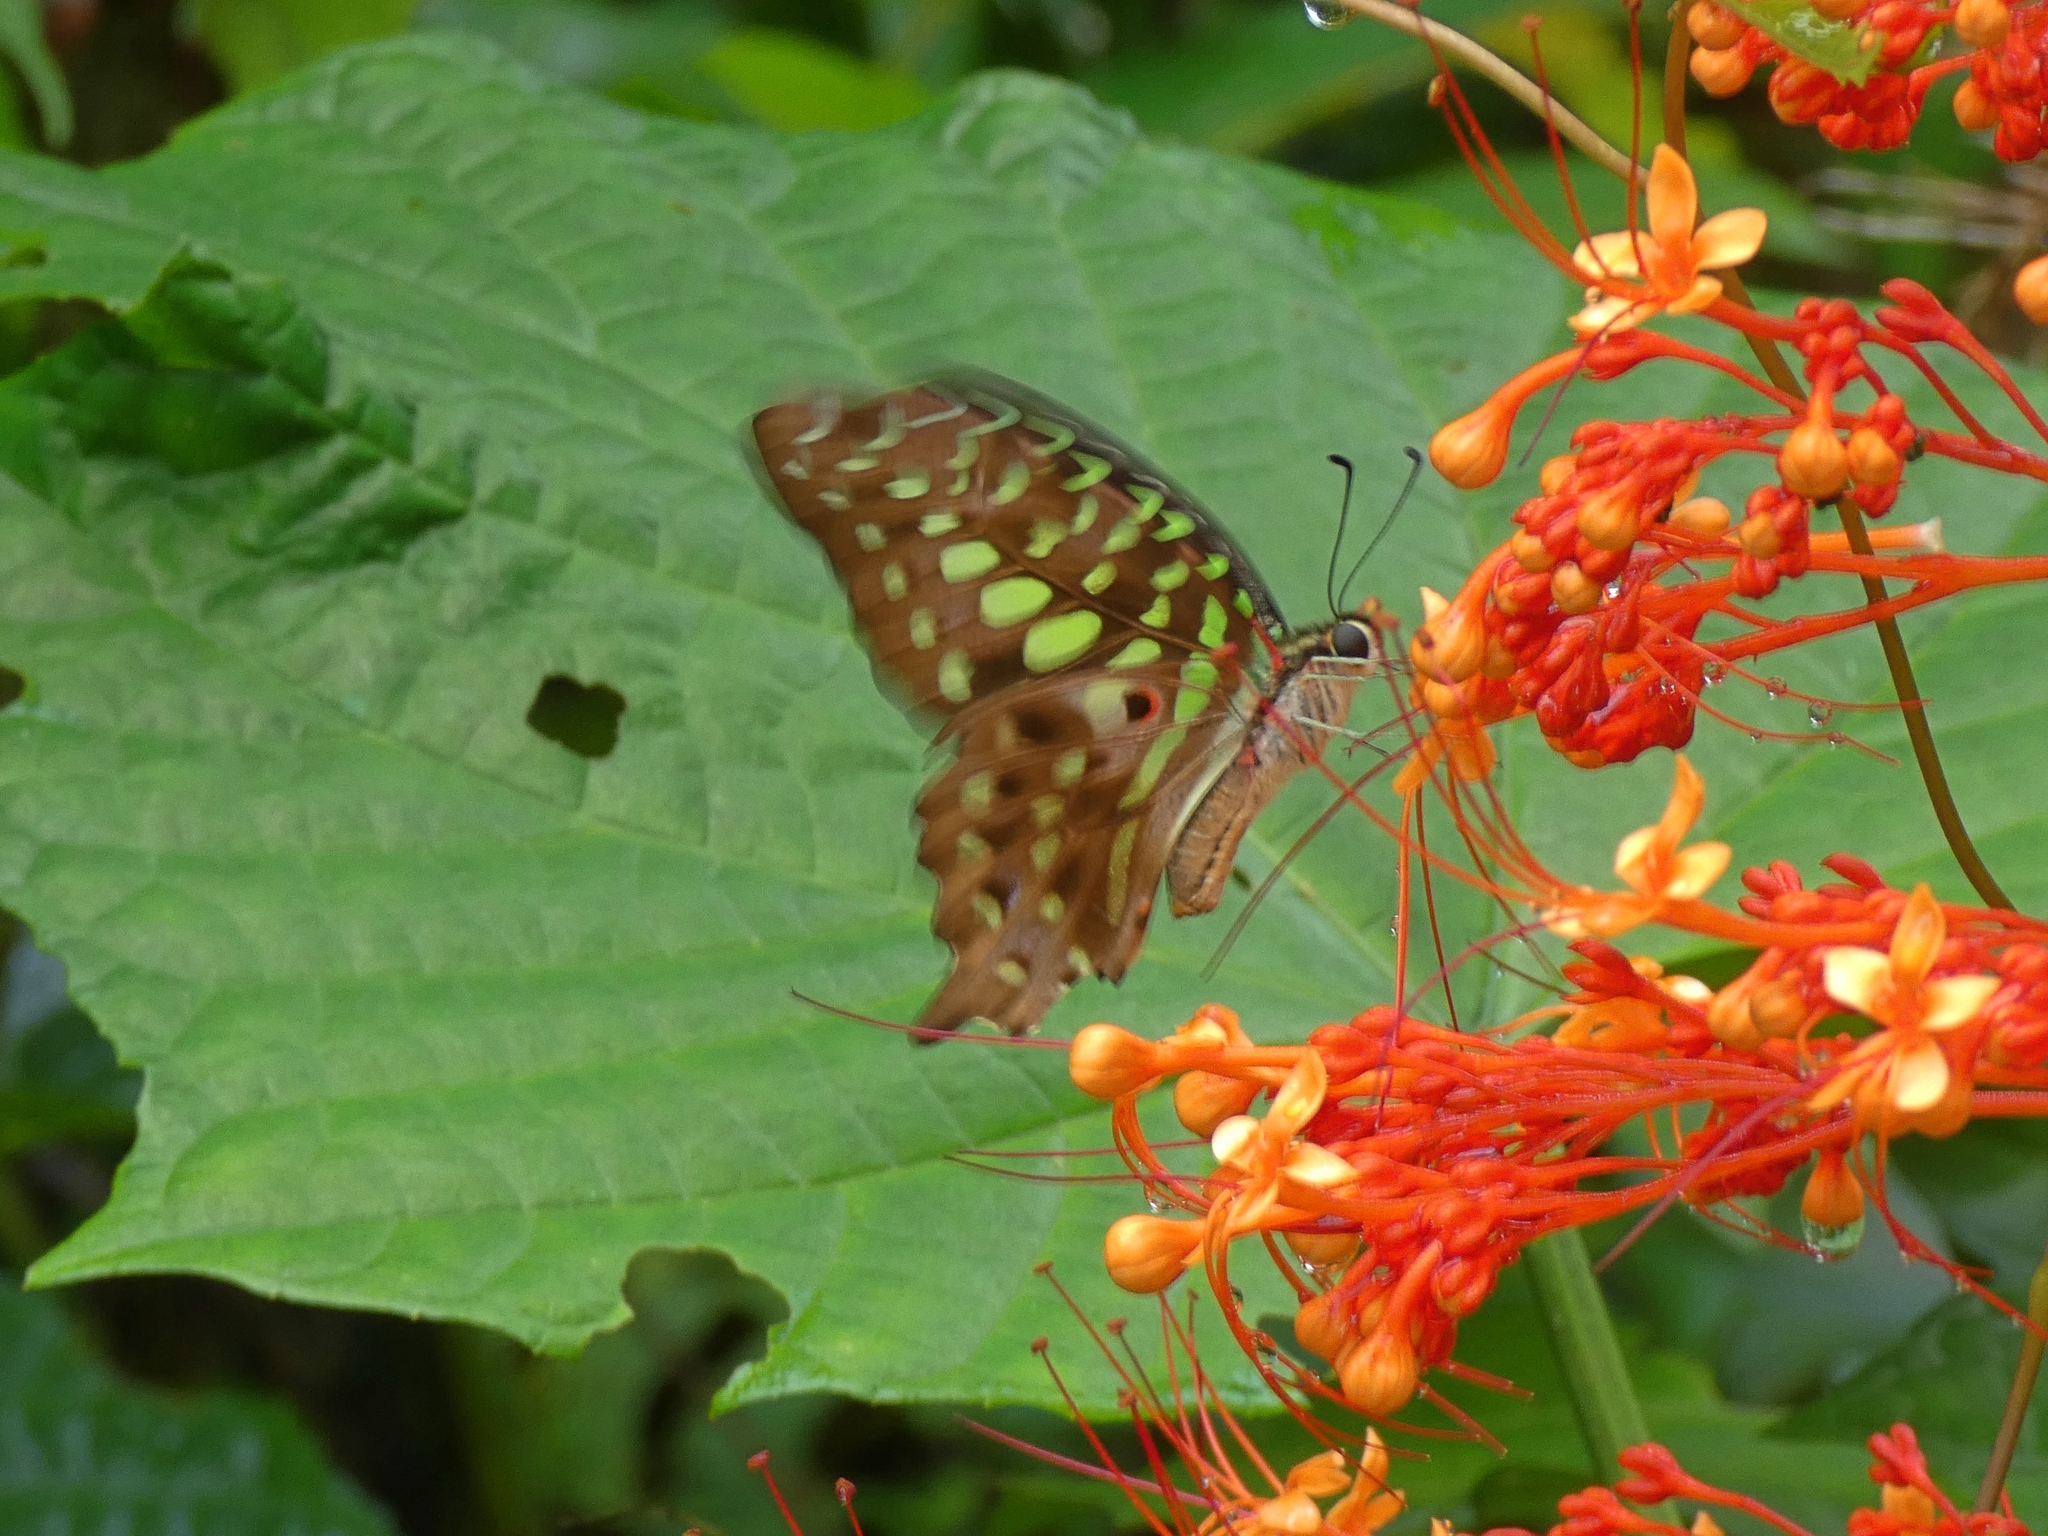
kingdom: Animalia
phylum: Arthropoda
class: Insecta
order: Lepidoptera
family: Papilionidae
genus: Graphium
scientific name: Graphium agamemnon
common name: Tailed jay
